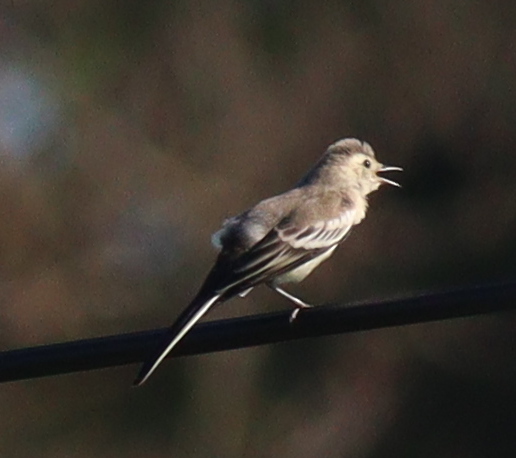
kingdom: Animalia
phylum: Chordata
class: Aves
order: Passeriformes
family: Motacillidae
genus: Motacilla
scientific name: Motacilla alba
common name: White wagtail
